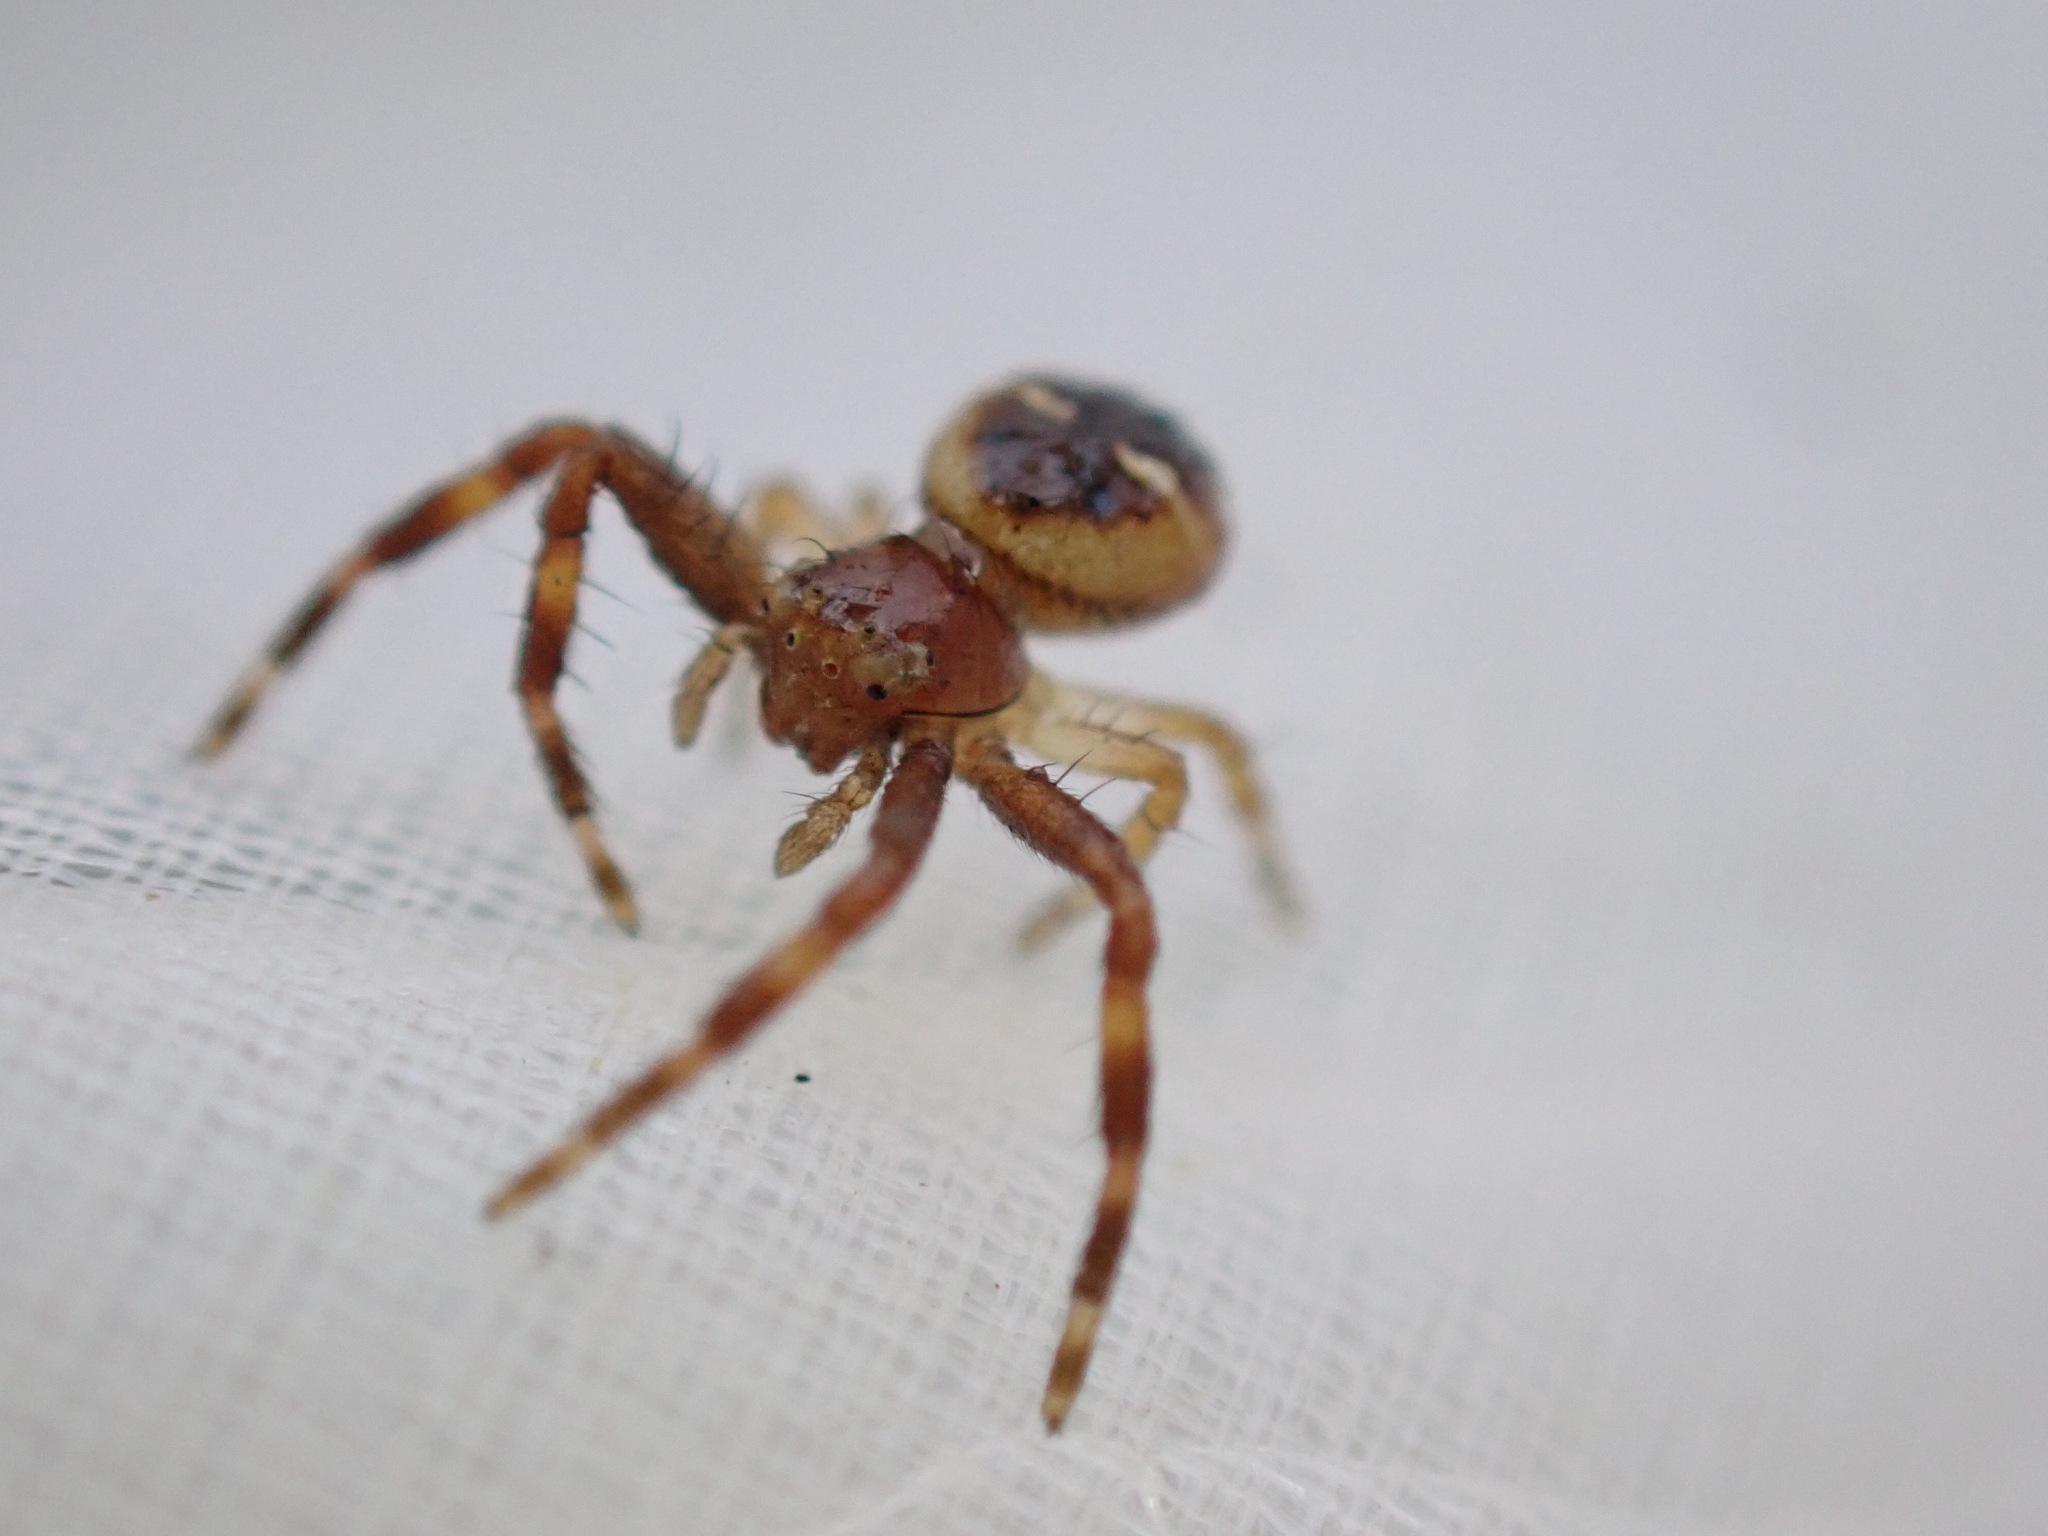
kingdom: Animalia
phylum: Arthropoda
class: Arachnida
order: Araneae
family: Thomisidae
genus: Synema
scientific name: Synema globosum
